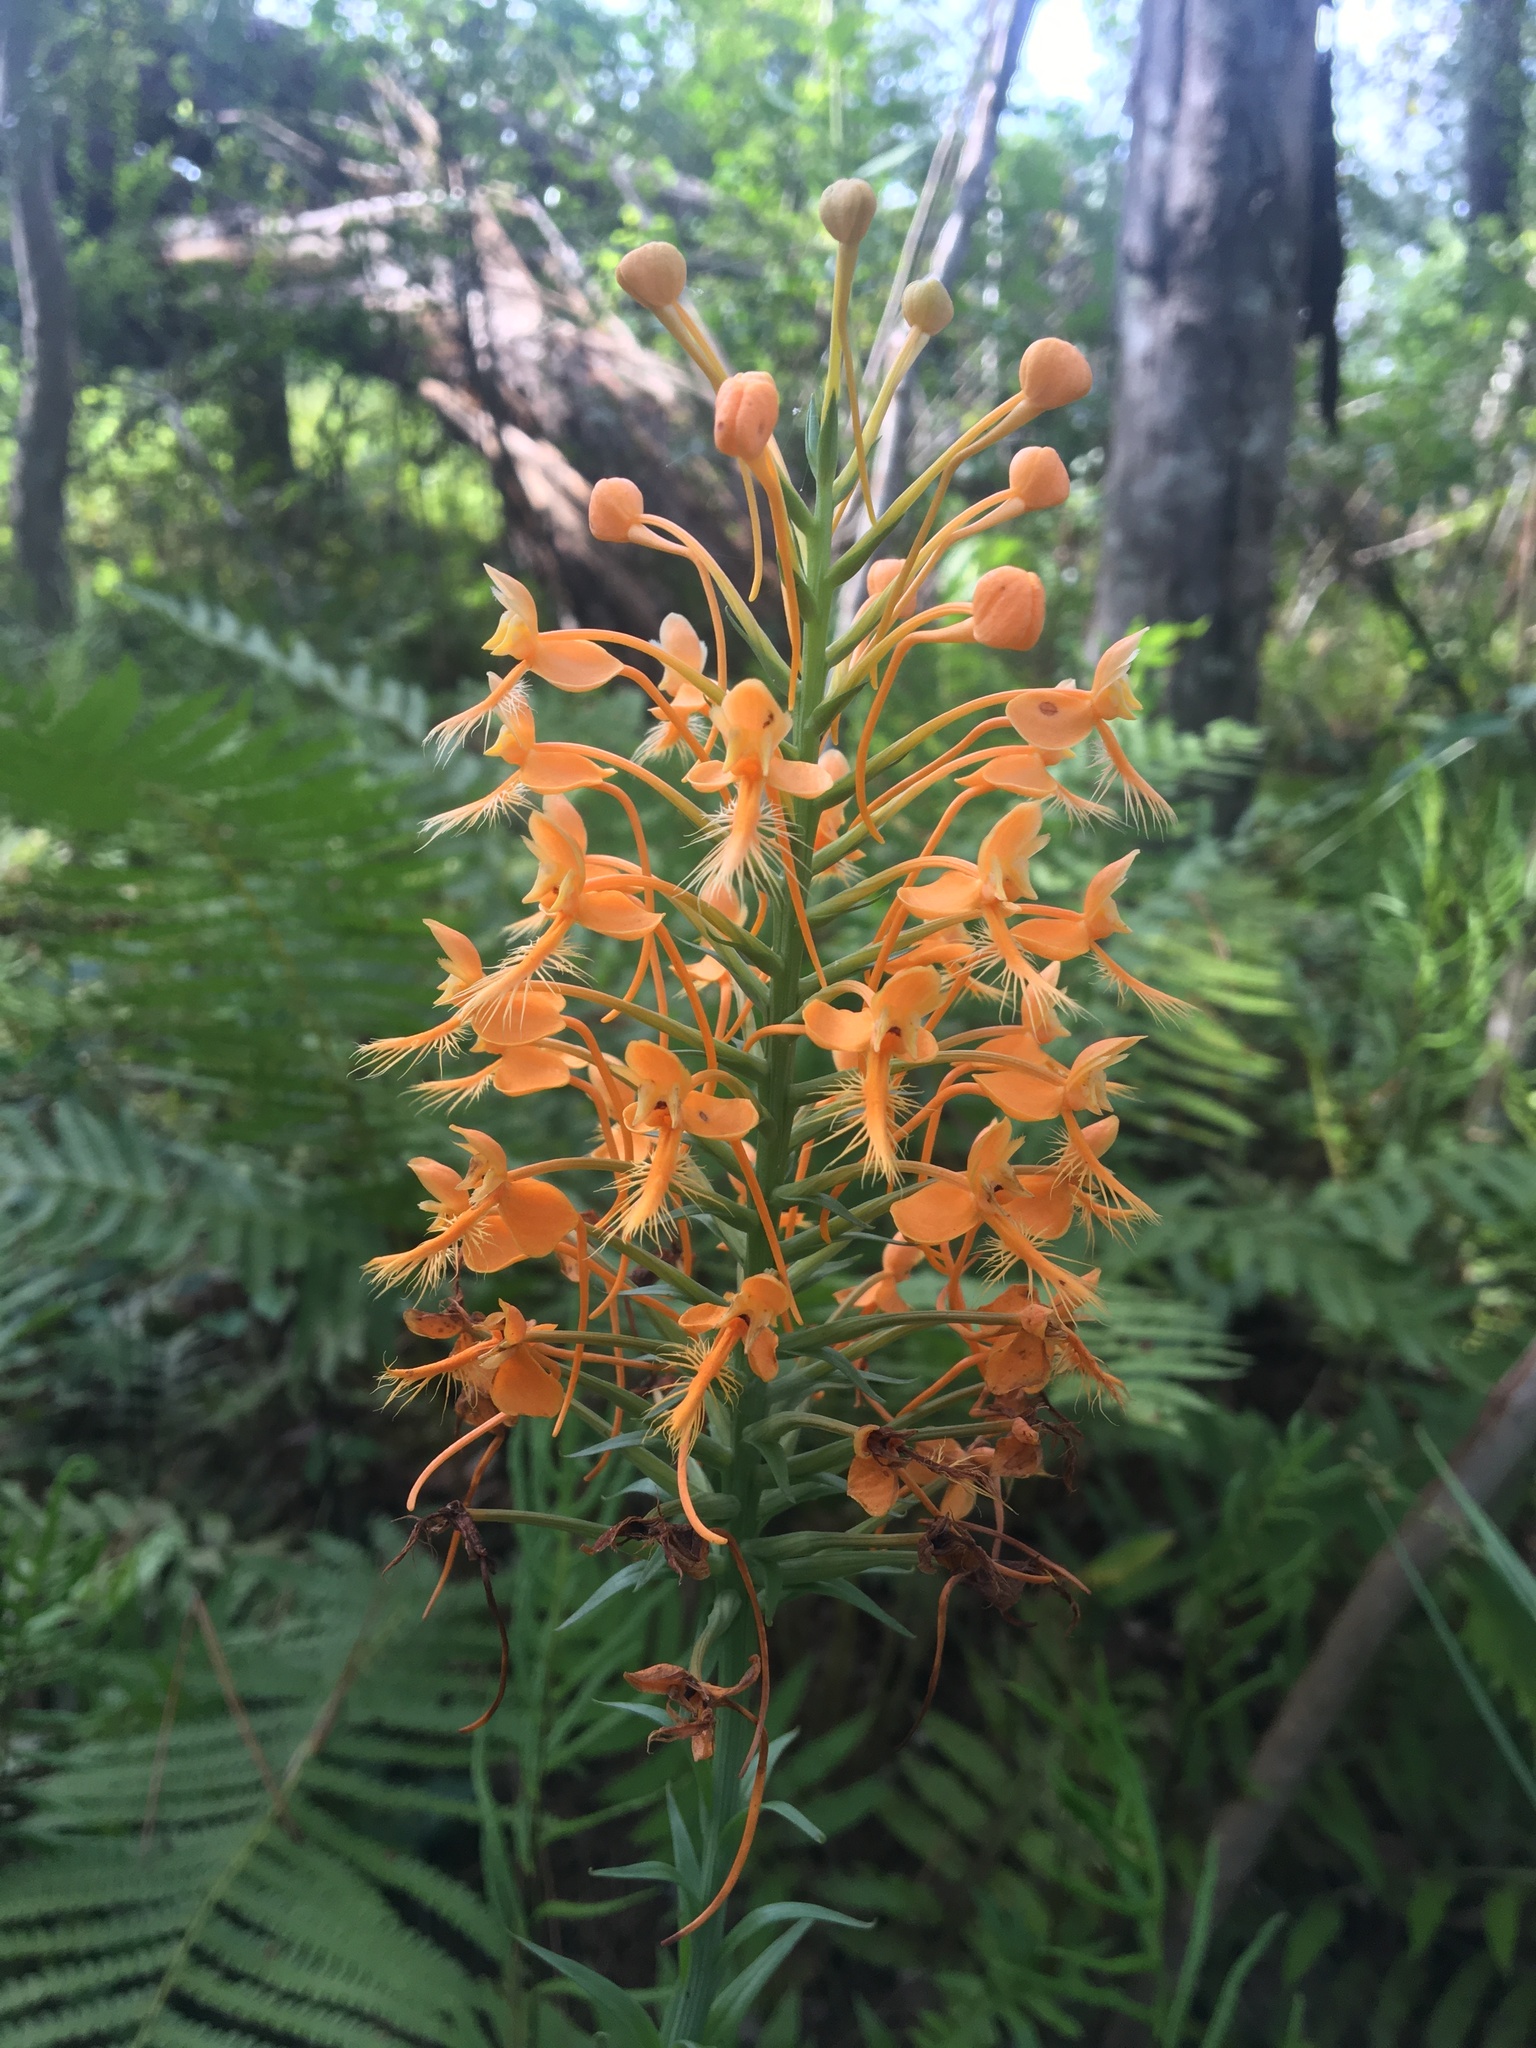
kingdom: Plantae
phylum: Tracheophyta
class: Liliopsida
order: Asparagales
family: Orchidaceae
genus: Platanthera
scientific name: Platanthera ciliaris
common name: Yellow fringed orchid
